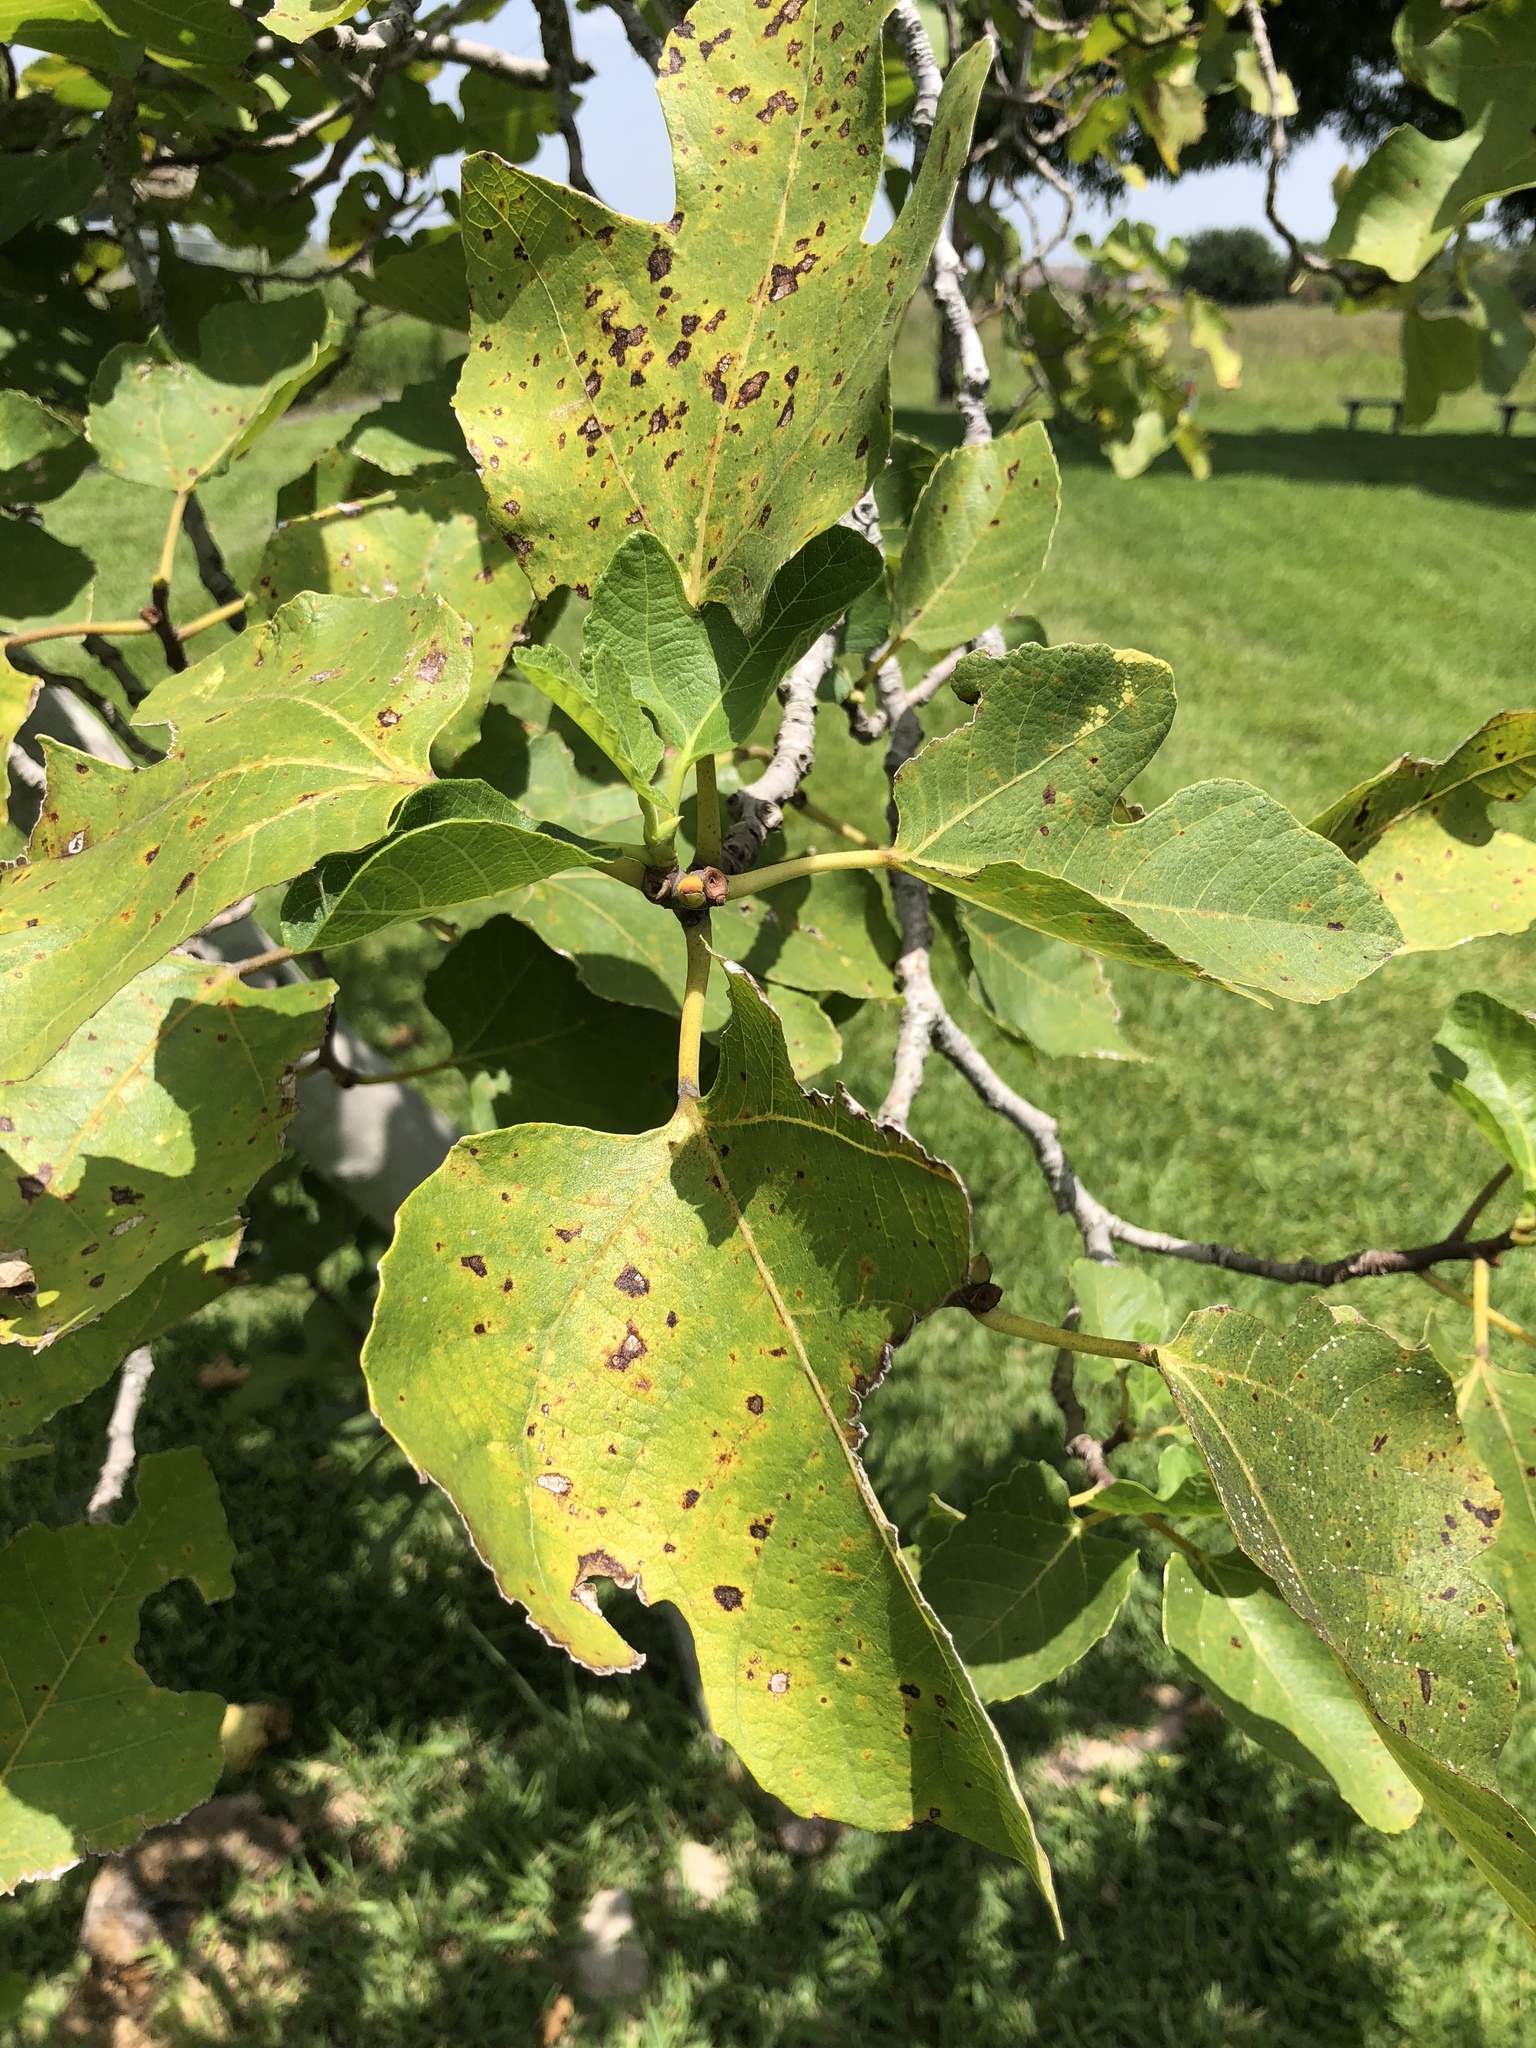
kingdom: Plantae
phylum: Tracheophyta
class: Magnoliopsida
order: Rosales
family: Moraceae
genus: Ficus
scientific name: Ficus carica
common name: Fig
